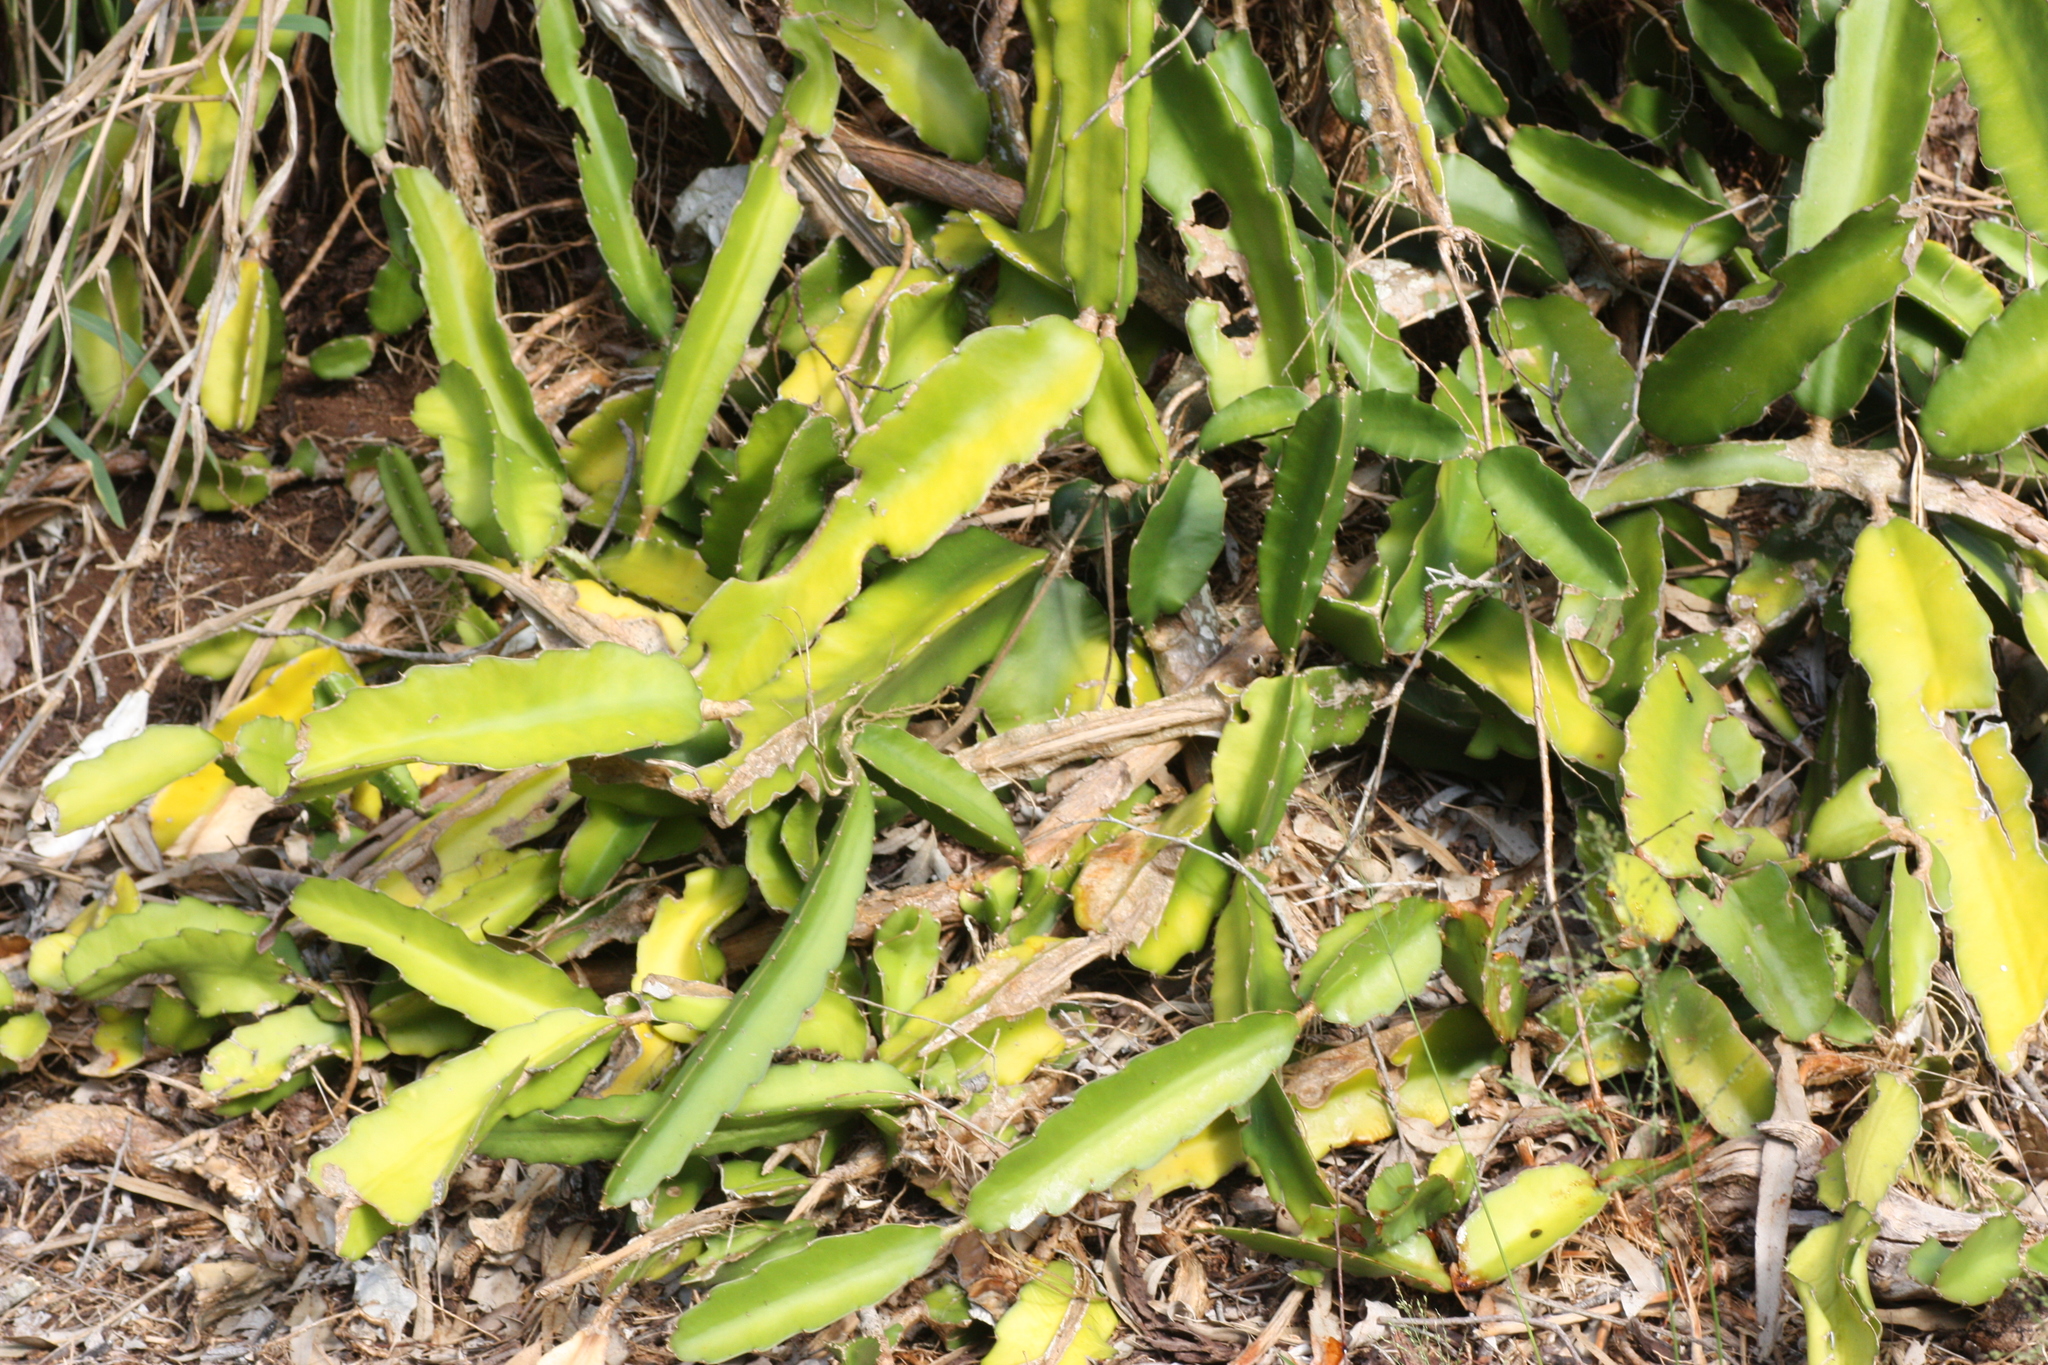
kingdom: Plantae
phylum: Tracheophyta
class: Magnoliopsida
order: Caryophyllales
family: Cactaceae
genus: Selenicereus
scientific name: Selenicereus undatus
